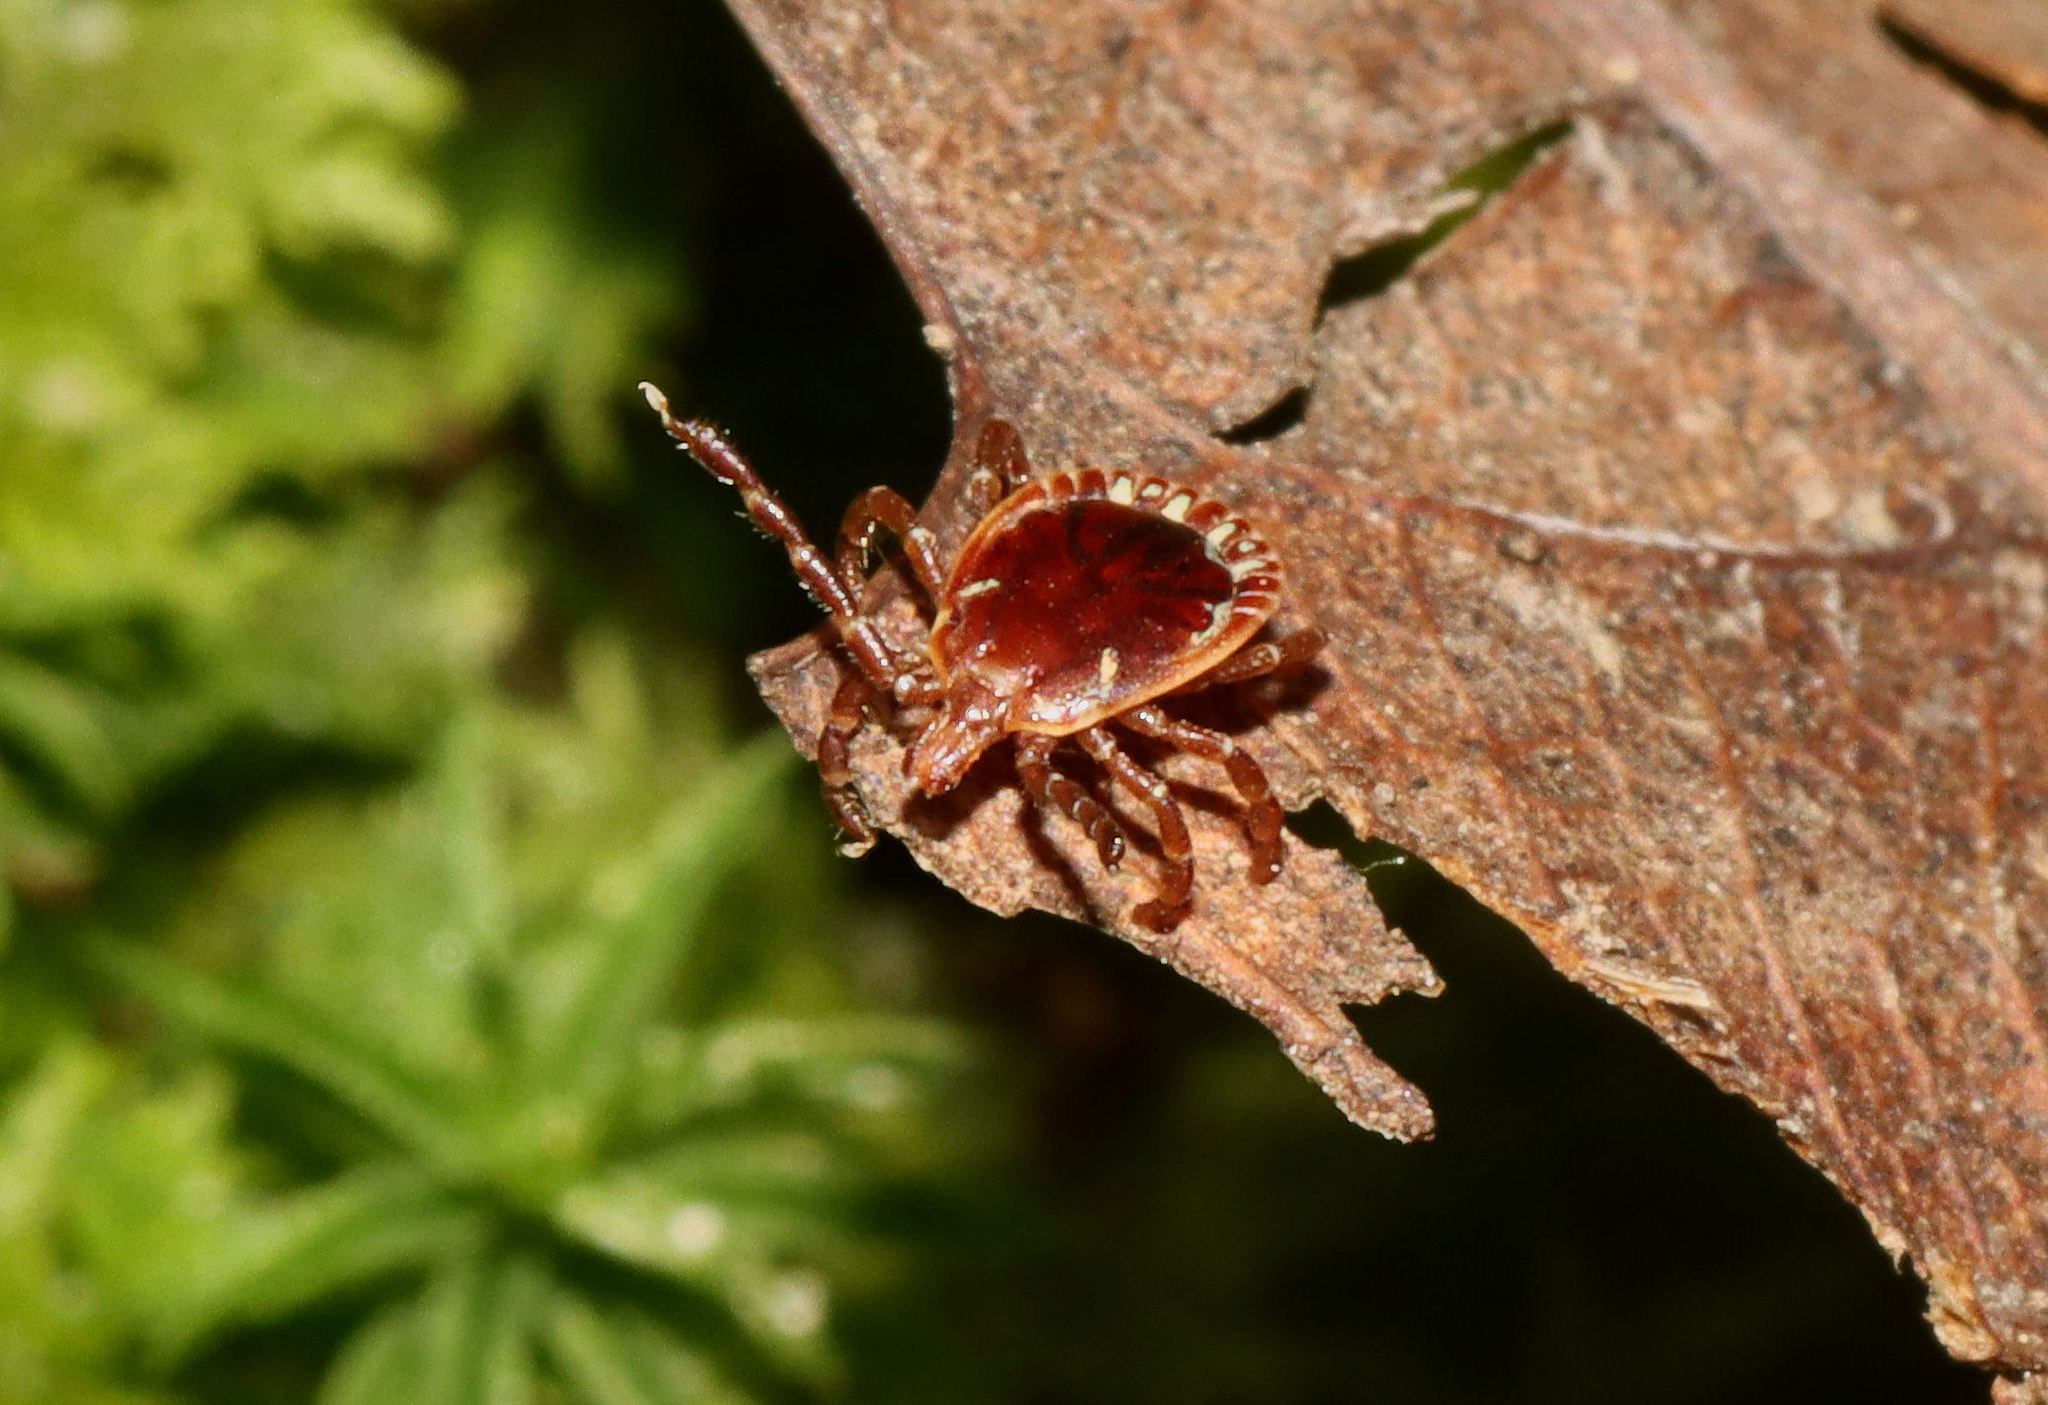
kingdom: Animalia
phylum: Arthropoda
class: Arachnida
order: Ixodida
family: Ixodidae
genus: Amblyomma
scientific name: Amblyomma americanum
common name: Lone star tick
